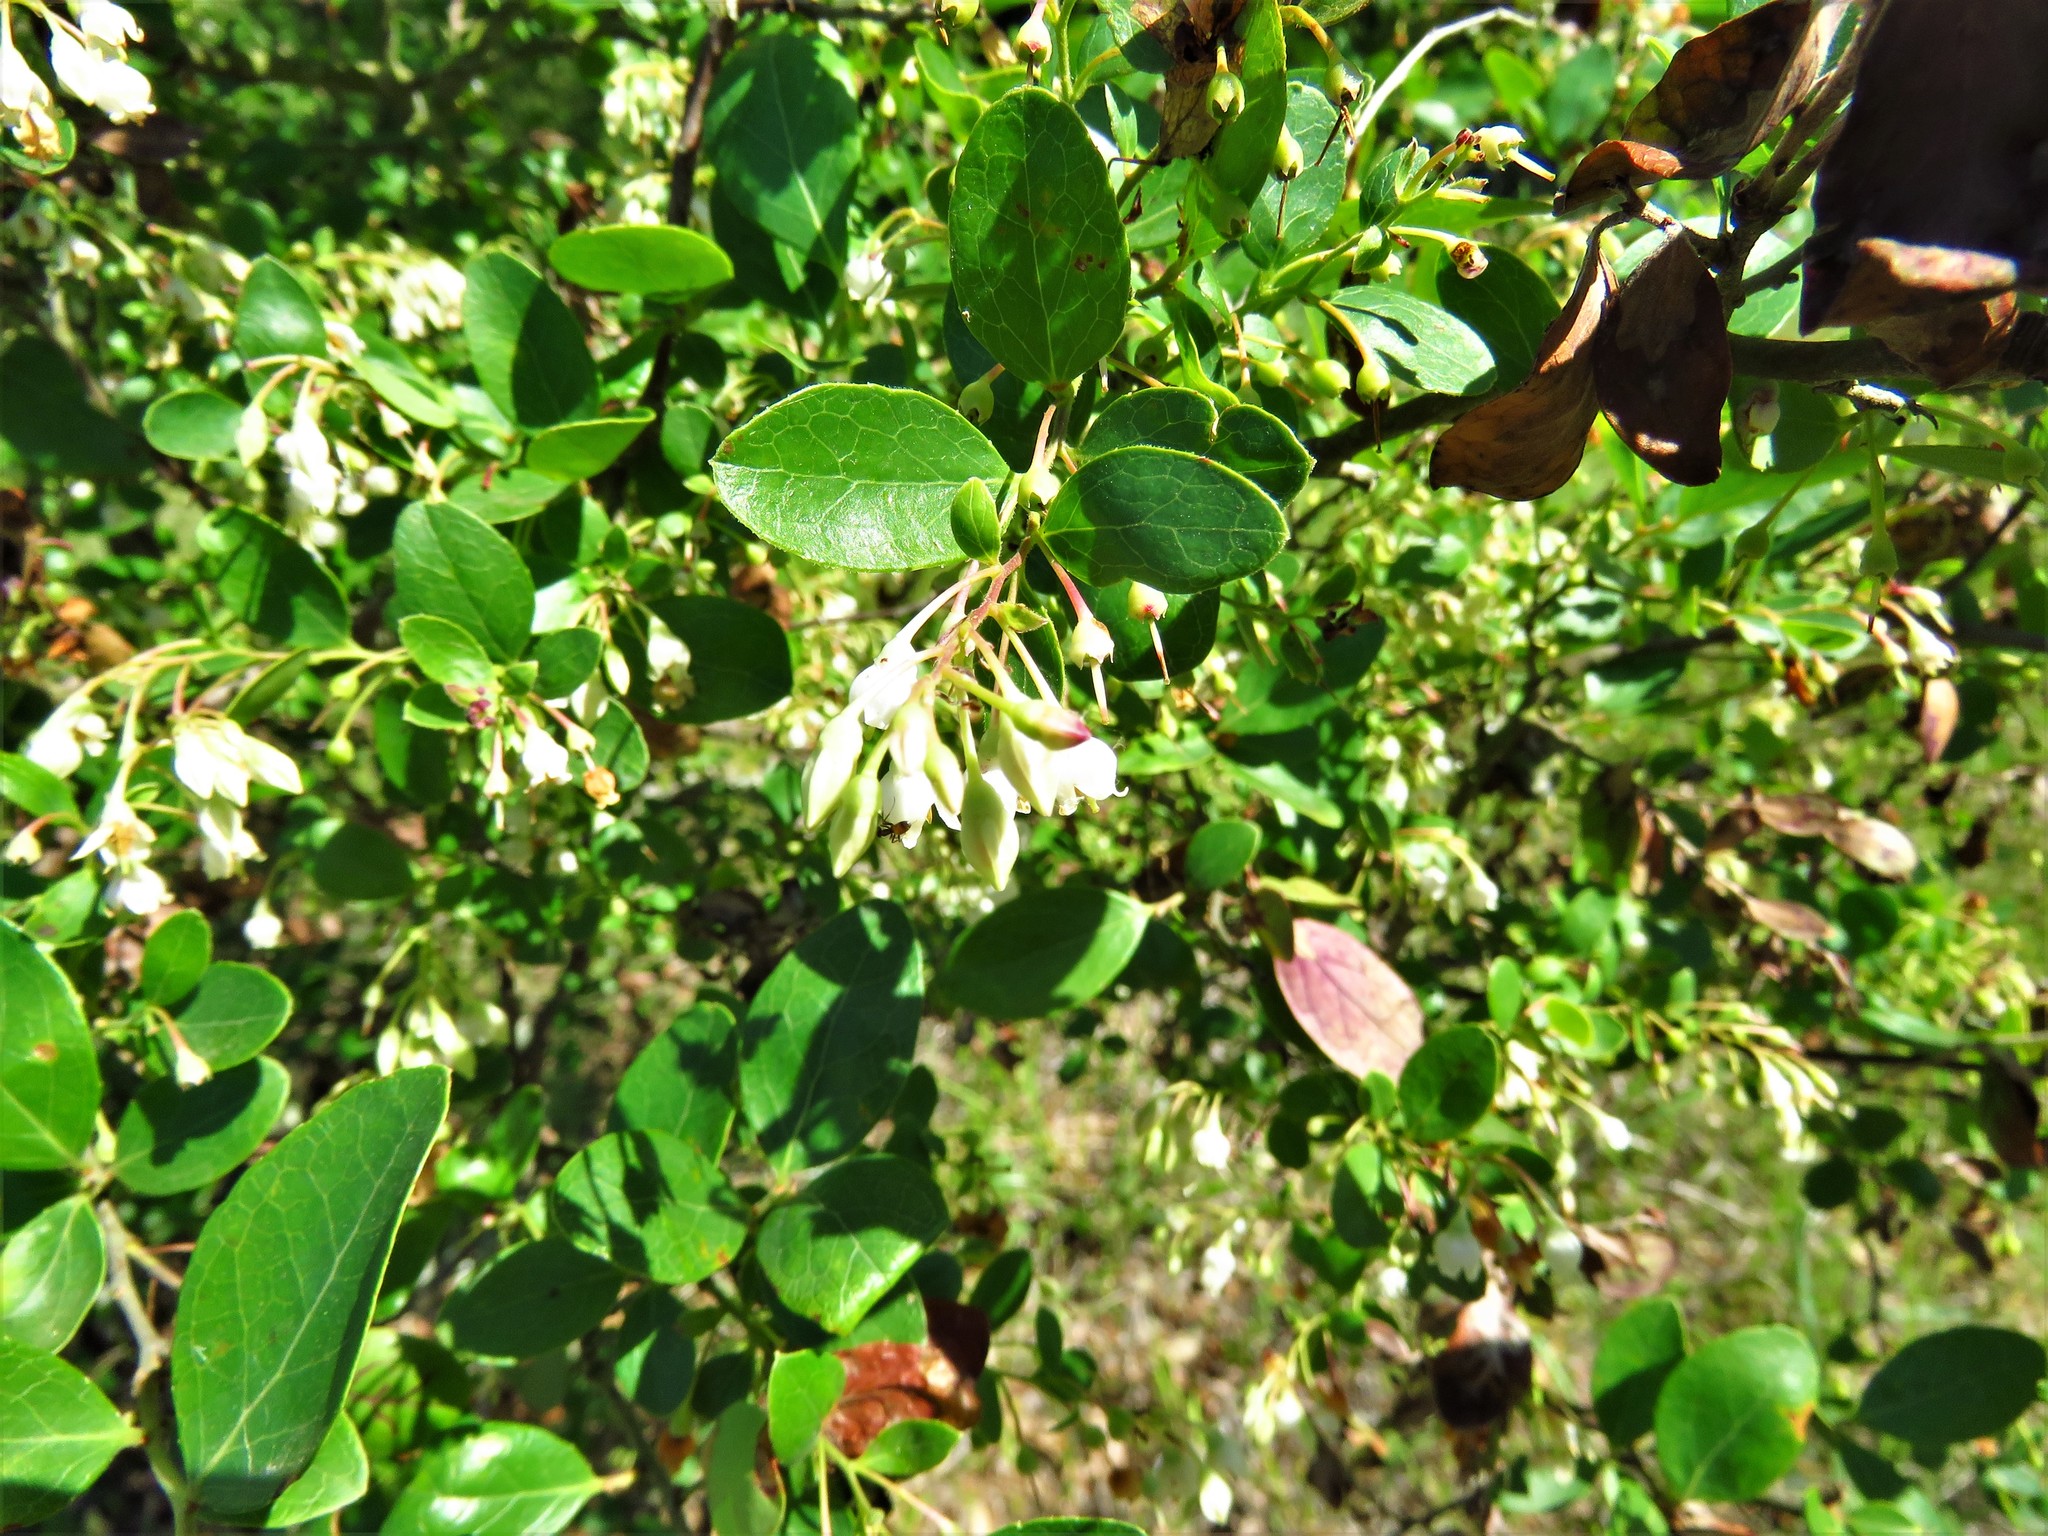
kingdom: Plantae
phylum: Tracheophyta
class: Magnoliopsida
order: Ericales
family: Ericaceae
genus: Vaccinium
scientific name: Vaccinium arboreum
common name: Farkleberry
